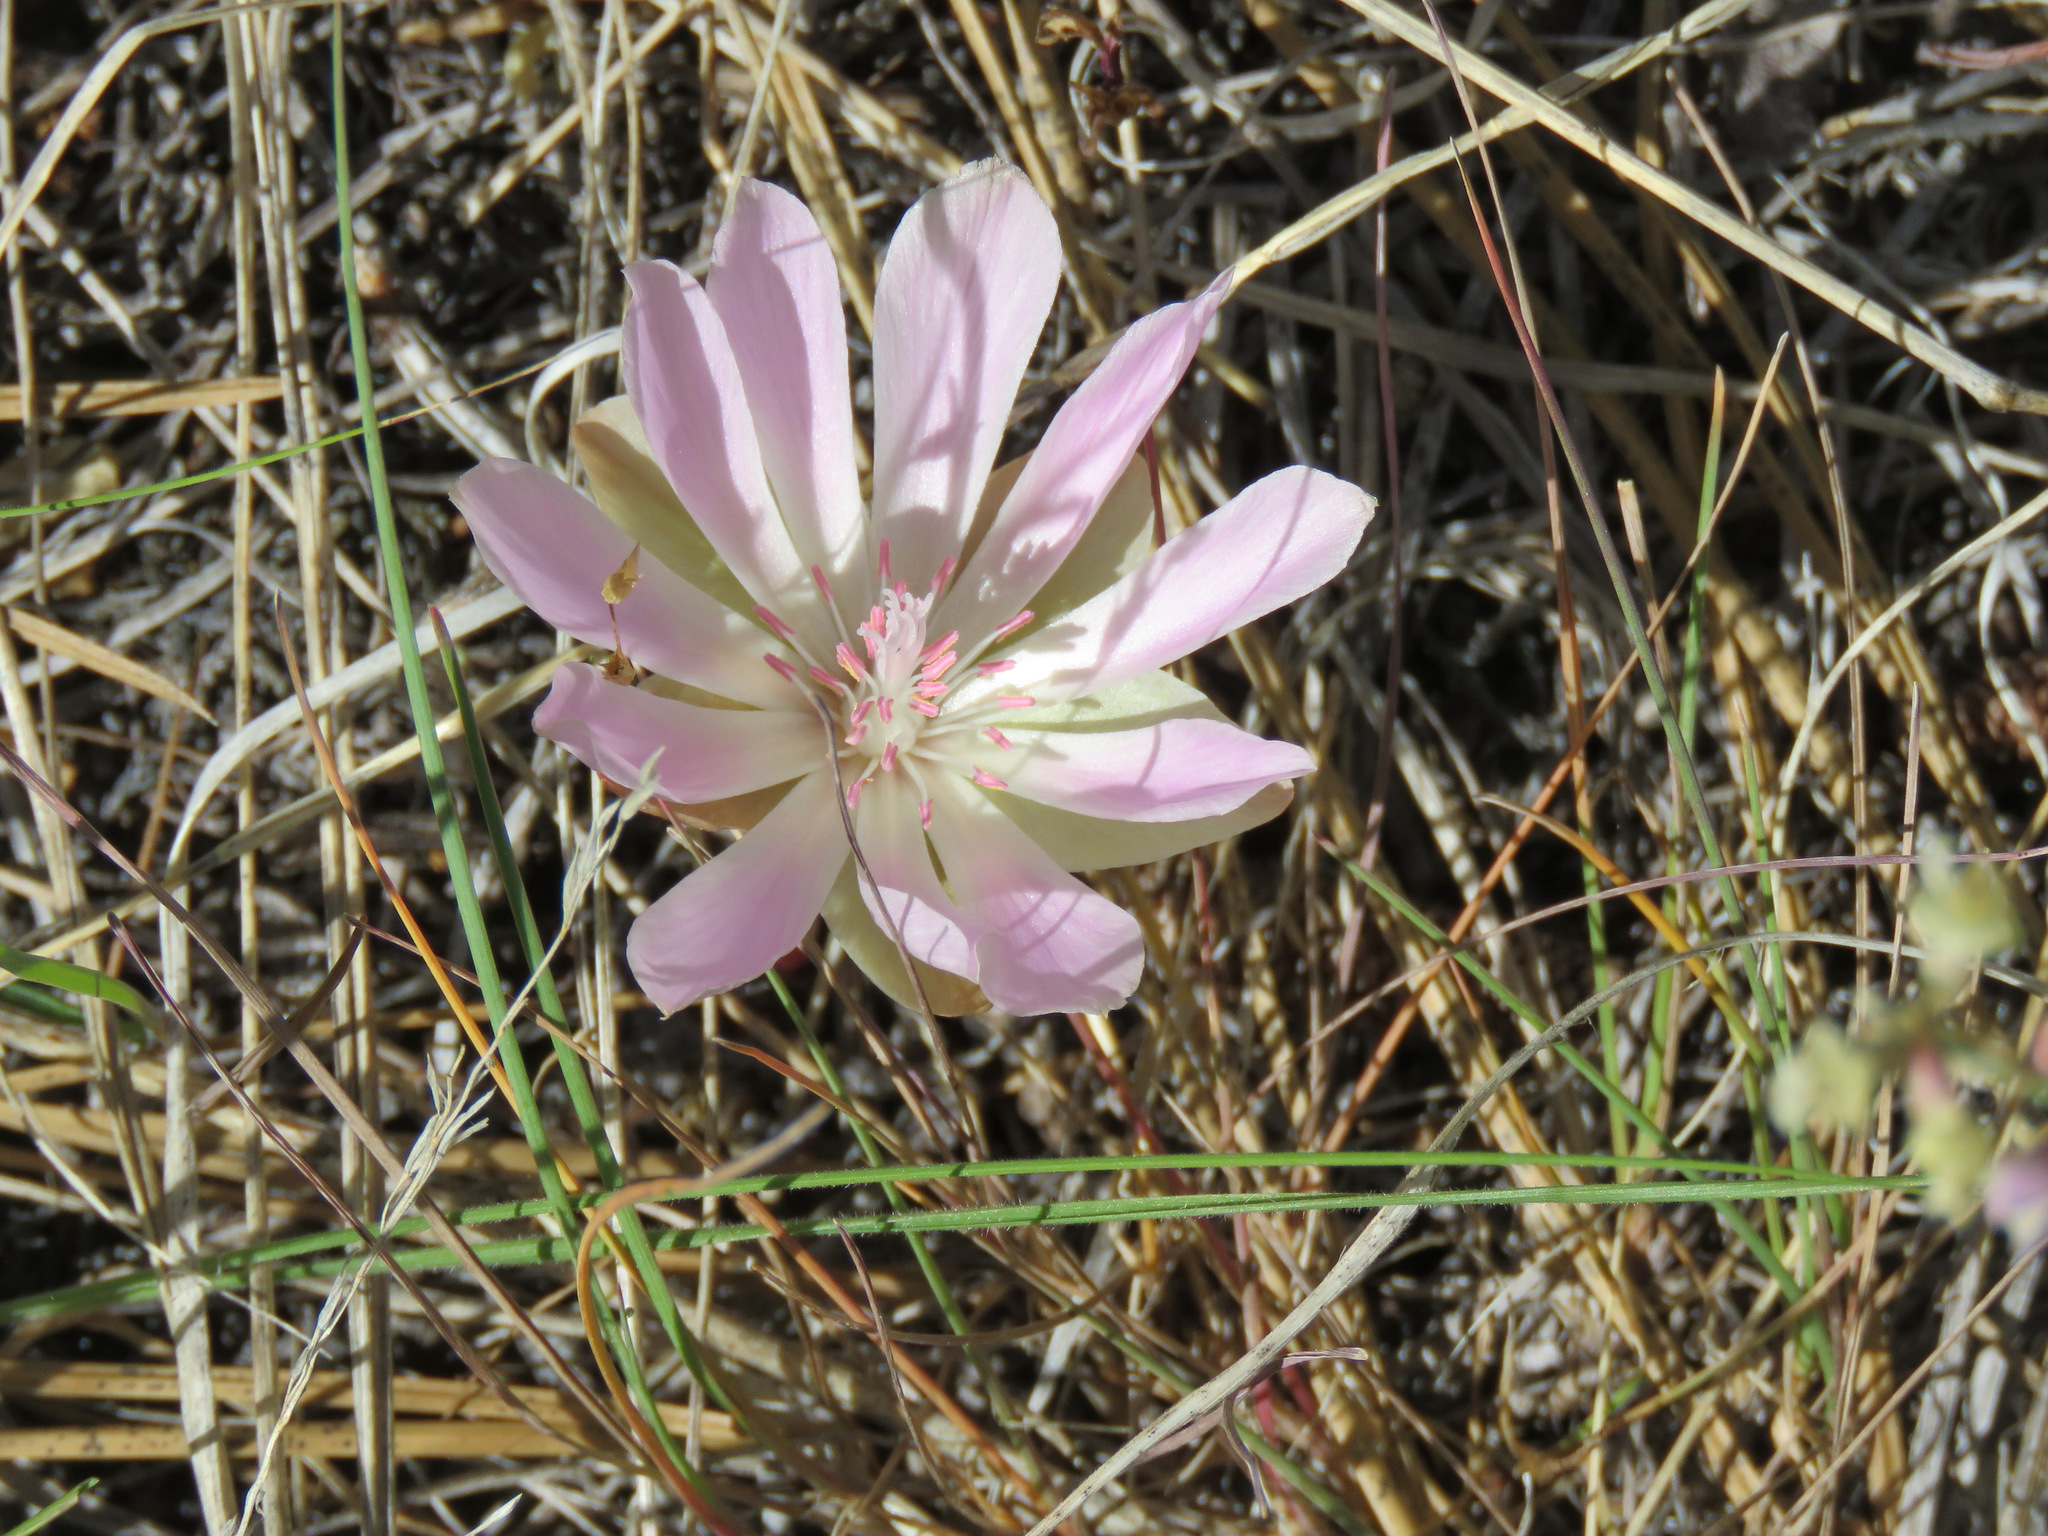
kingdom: Plantae
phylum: Tracheophyta
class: Magnoliopsida
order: Caryophyllales
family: Montiaceae
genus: Lewisia
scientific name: Lewisia rediviva
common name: Bitter-root
